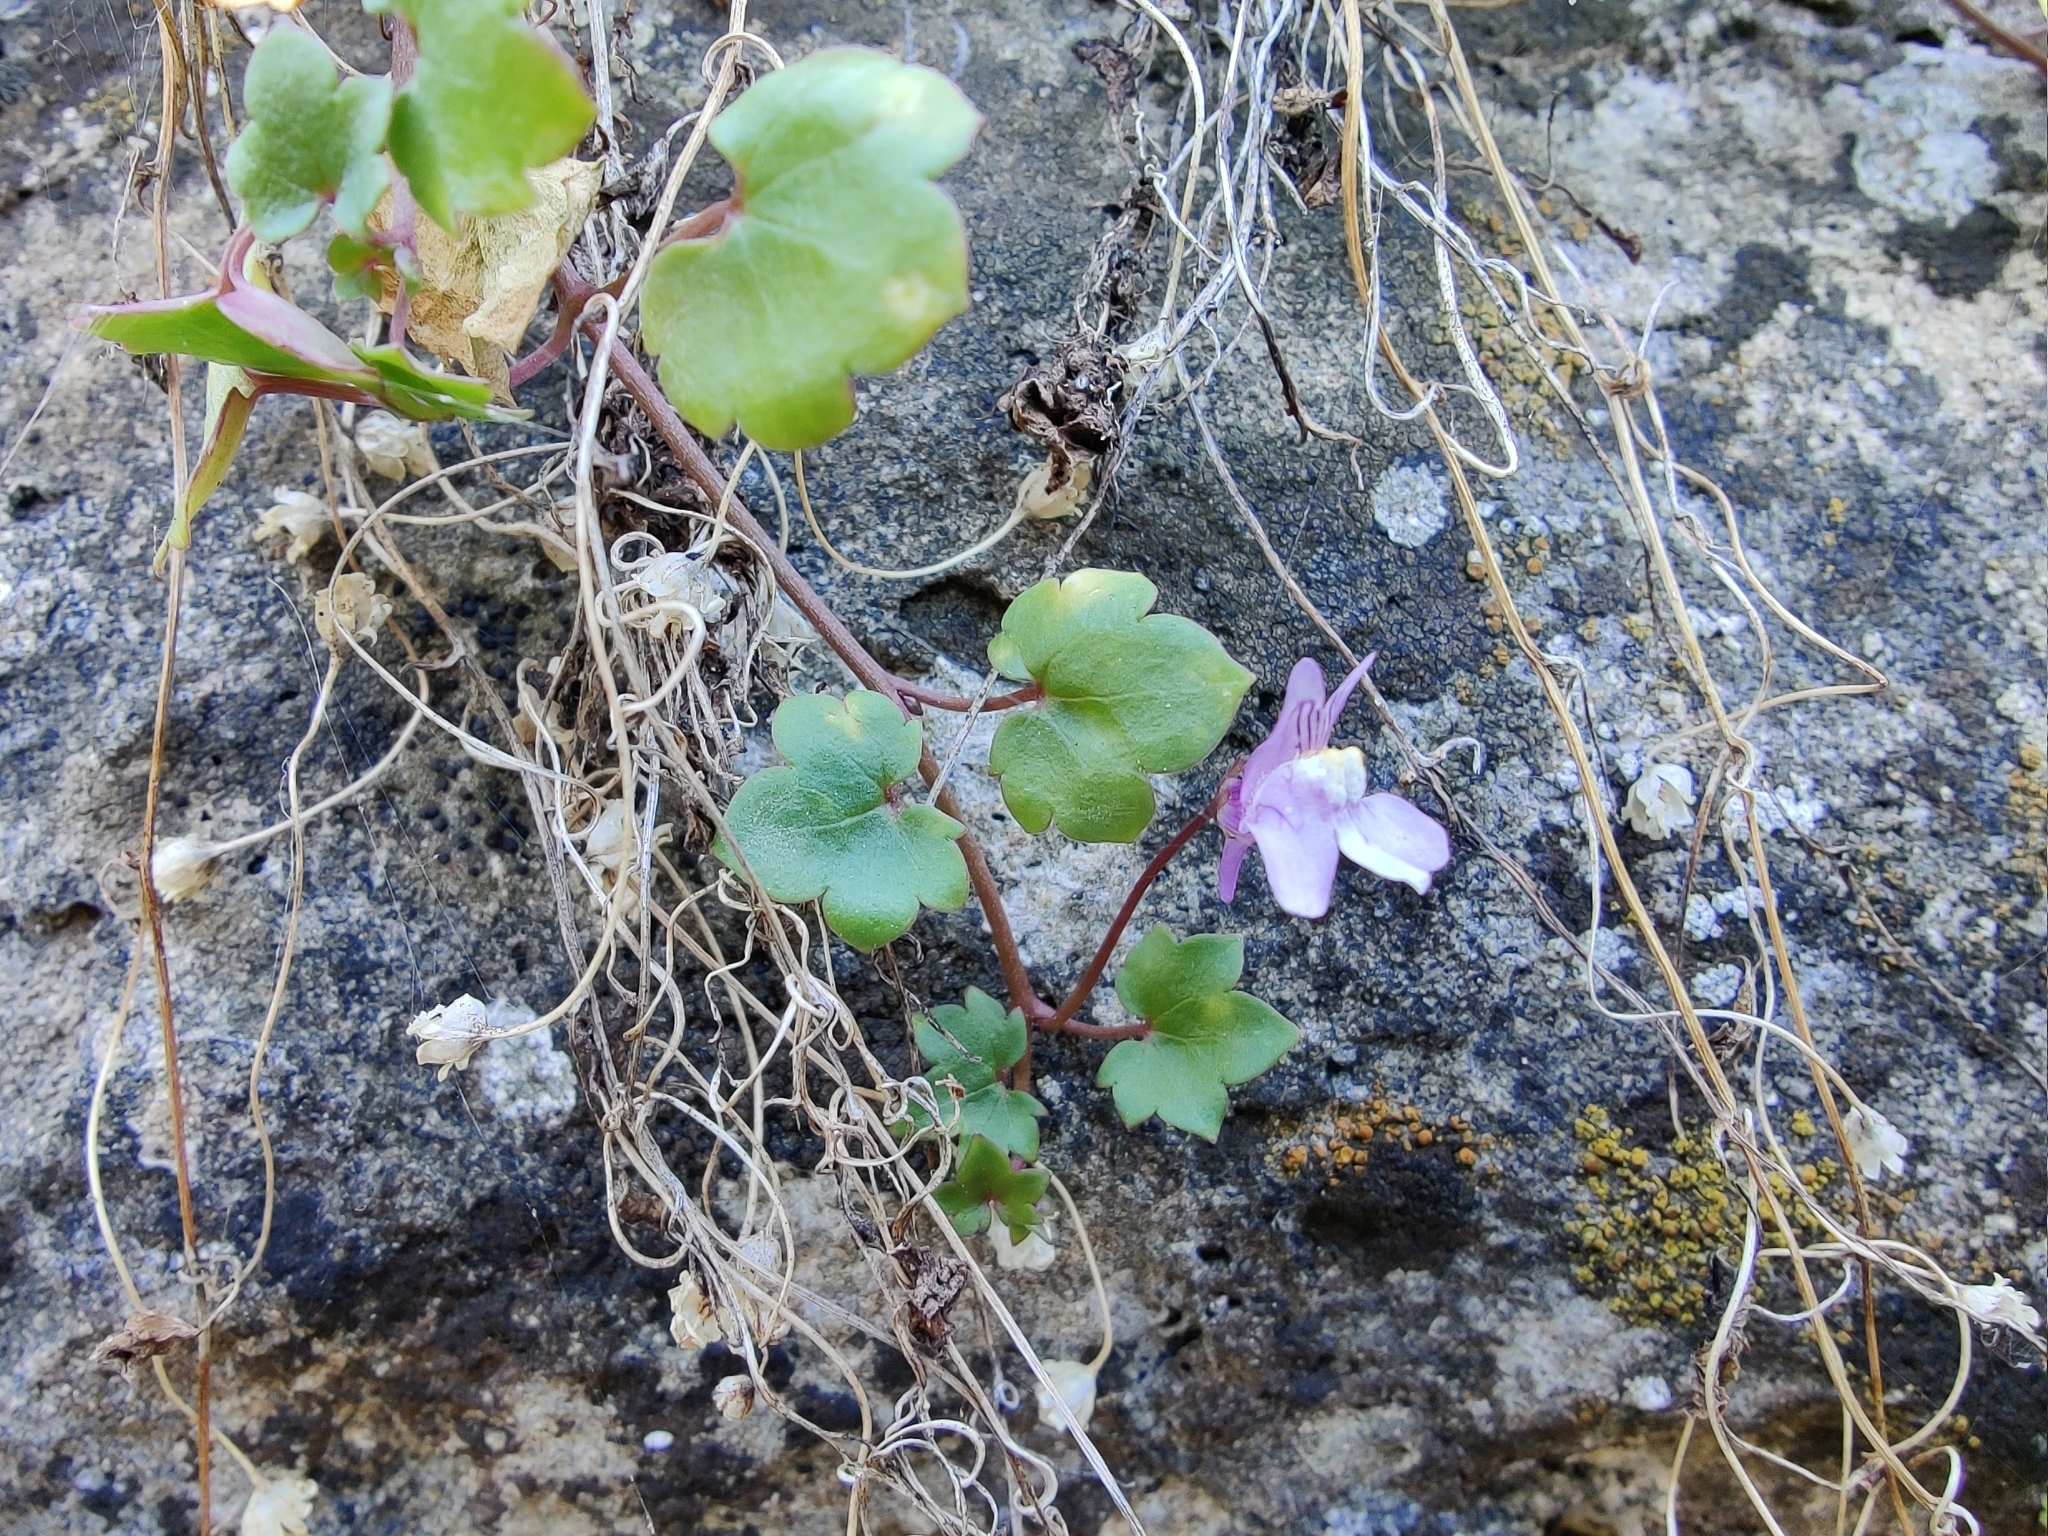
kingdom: Plantae
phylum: Tracheophyta
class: Magnoliopsida
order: Lamiales
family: Plantaginaceae
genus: Cymbalaria
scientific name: Cymbalaria muralis
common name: Ivy-leaved toadflax
